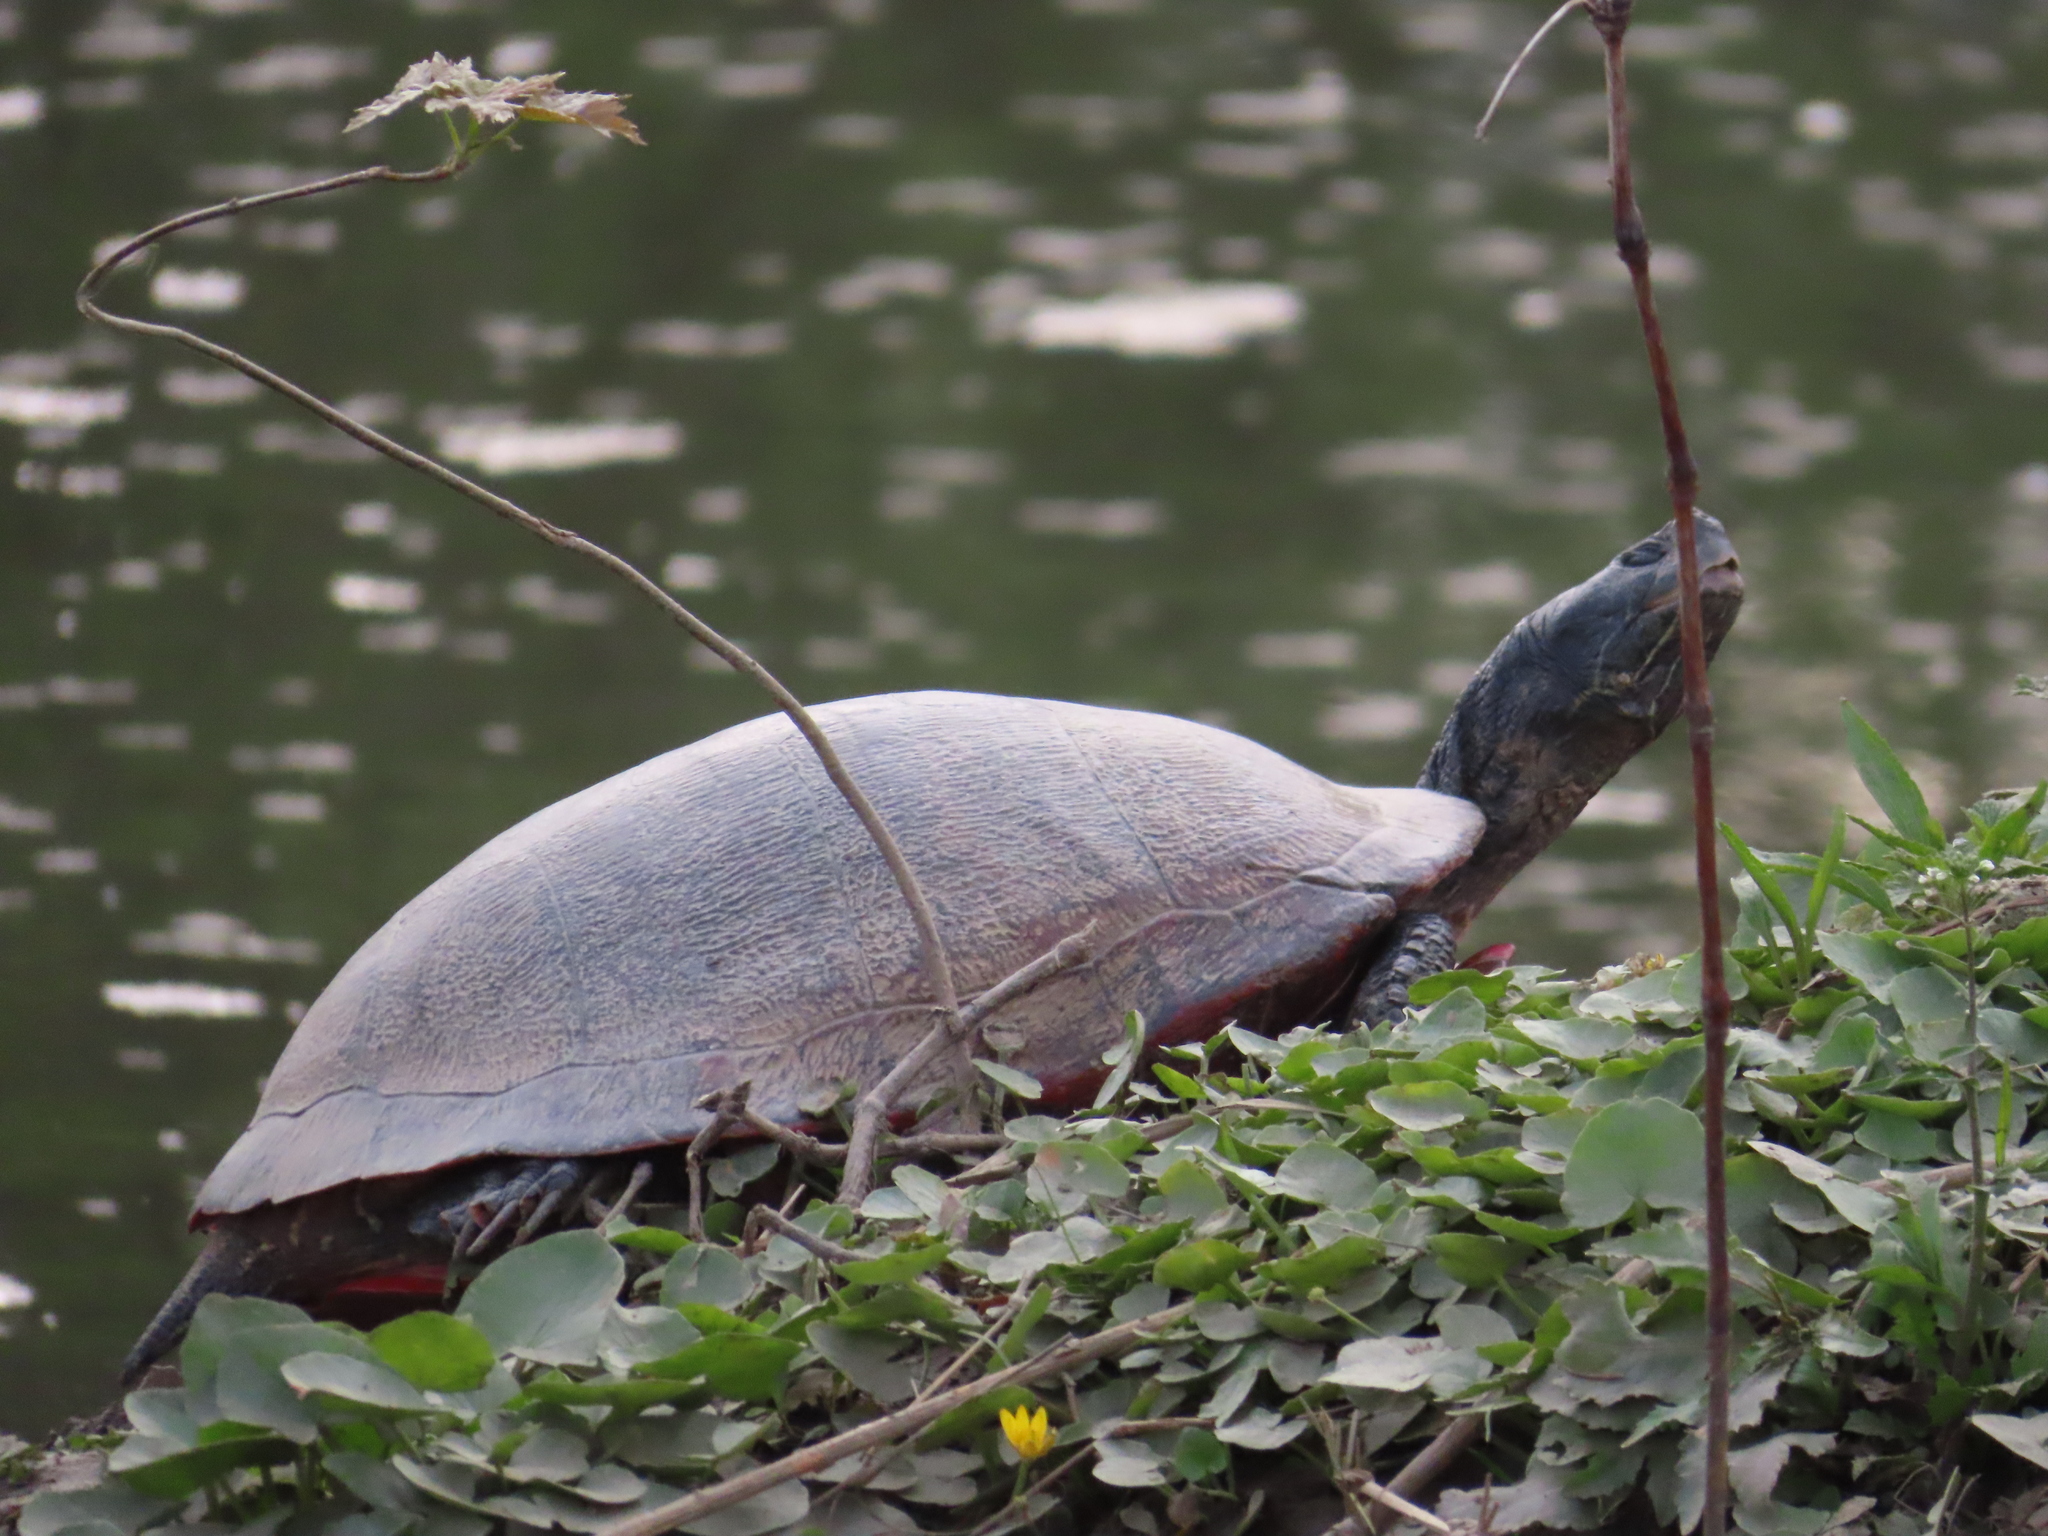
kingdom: Animalia
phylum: Chordata
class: Testudines
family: Emydidae
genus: Pseudemys
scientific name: Pseudemys rubriventris
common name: American red-bellied turtle
